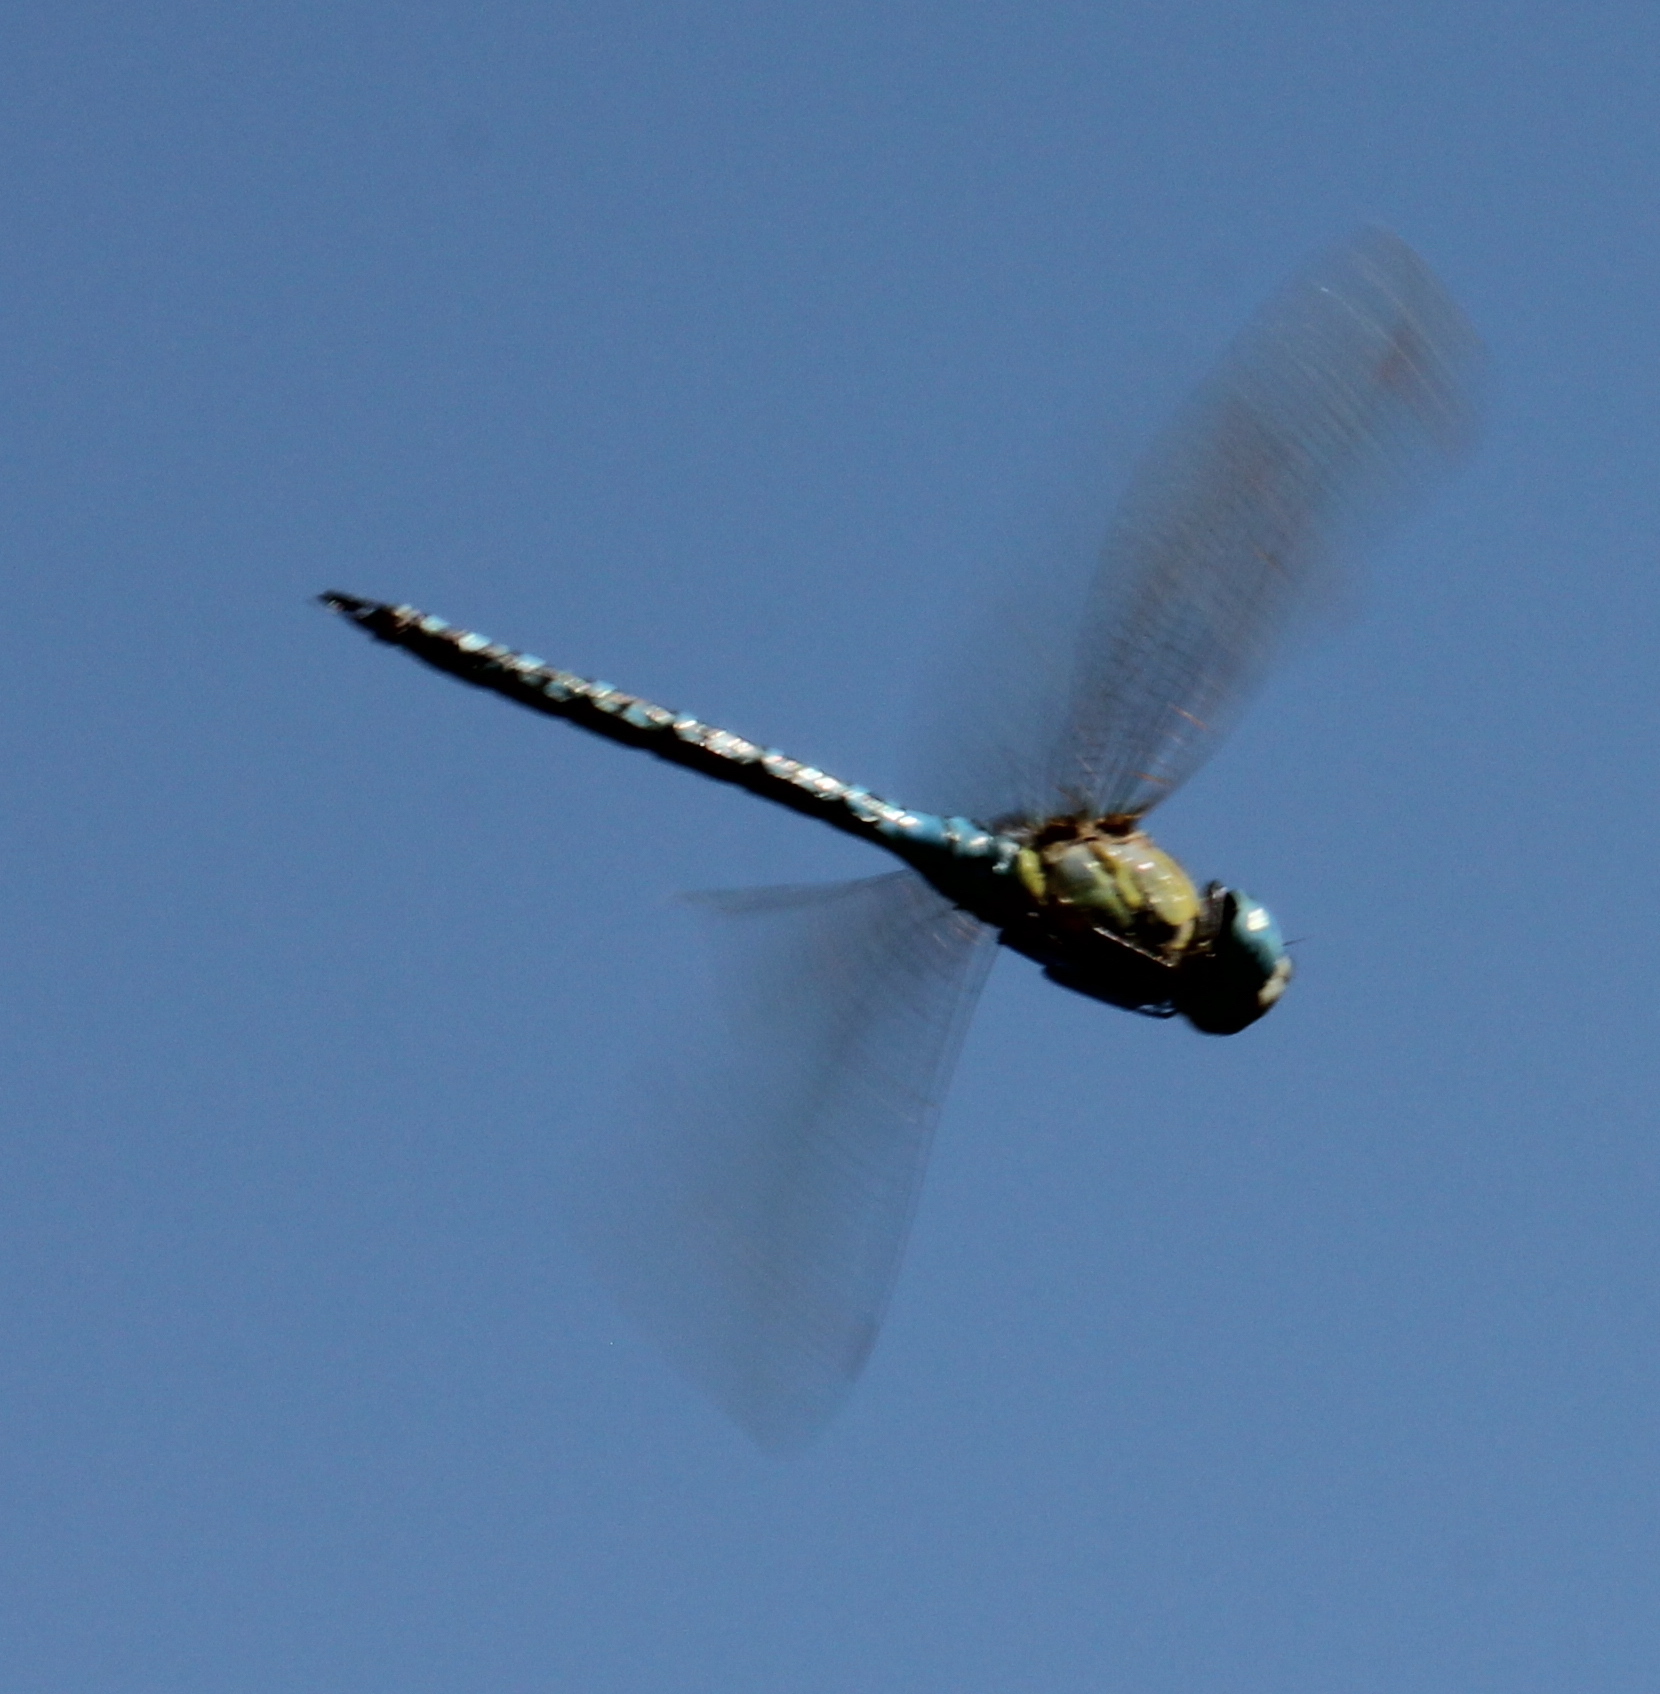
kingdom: Animalia
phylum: Arthropoda
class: Insecta
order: Odonata
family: Aeshnidae
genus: Aeshna
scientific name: Aeshna affinis
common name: Southern migrant hawker
